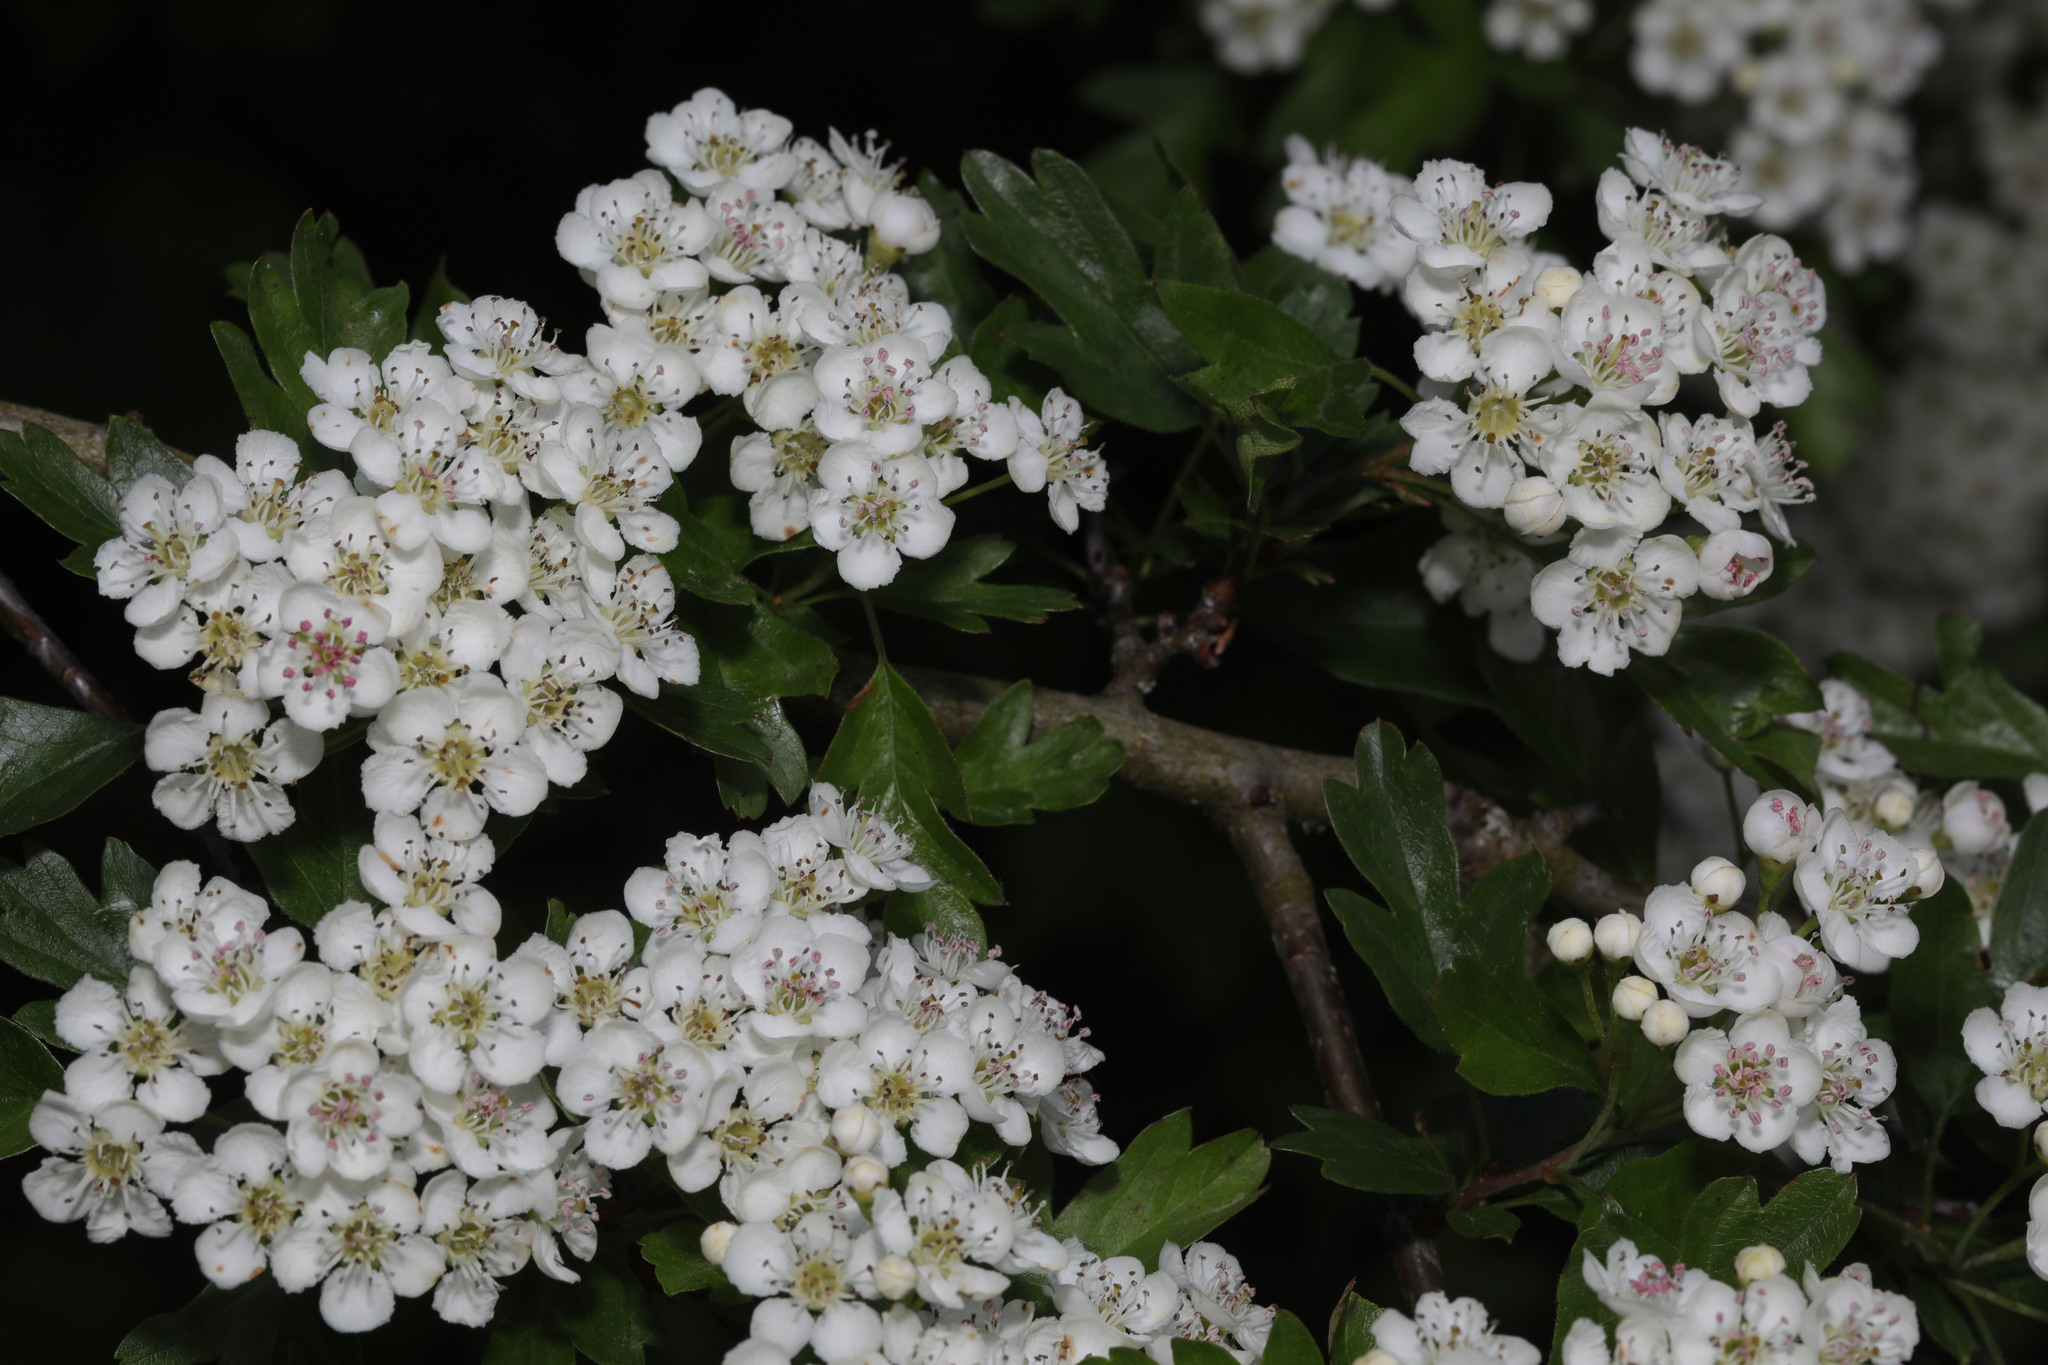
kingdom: Plantae
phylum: Tracheophyta
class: Magnoliopsida
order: Rosales
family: Rosaceae
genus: Crataegus
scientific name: Crataegus monogyna
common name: Hawthorn
